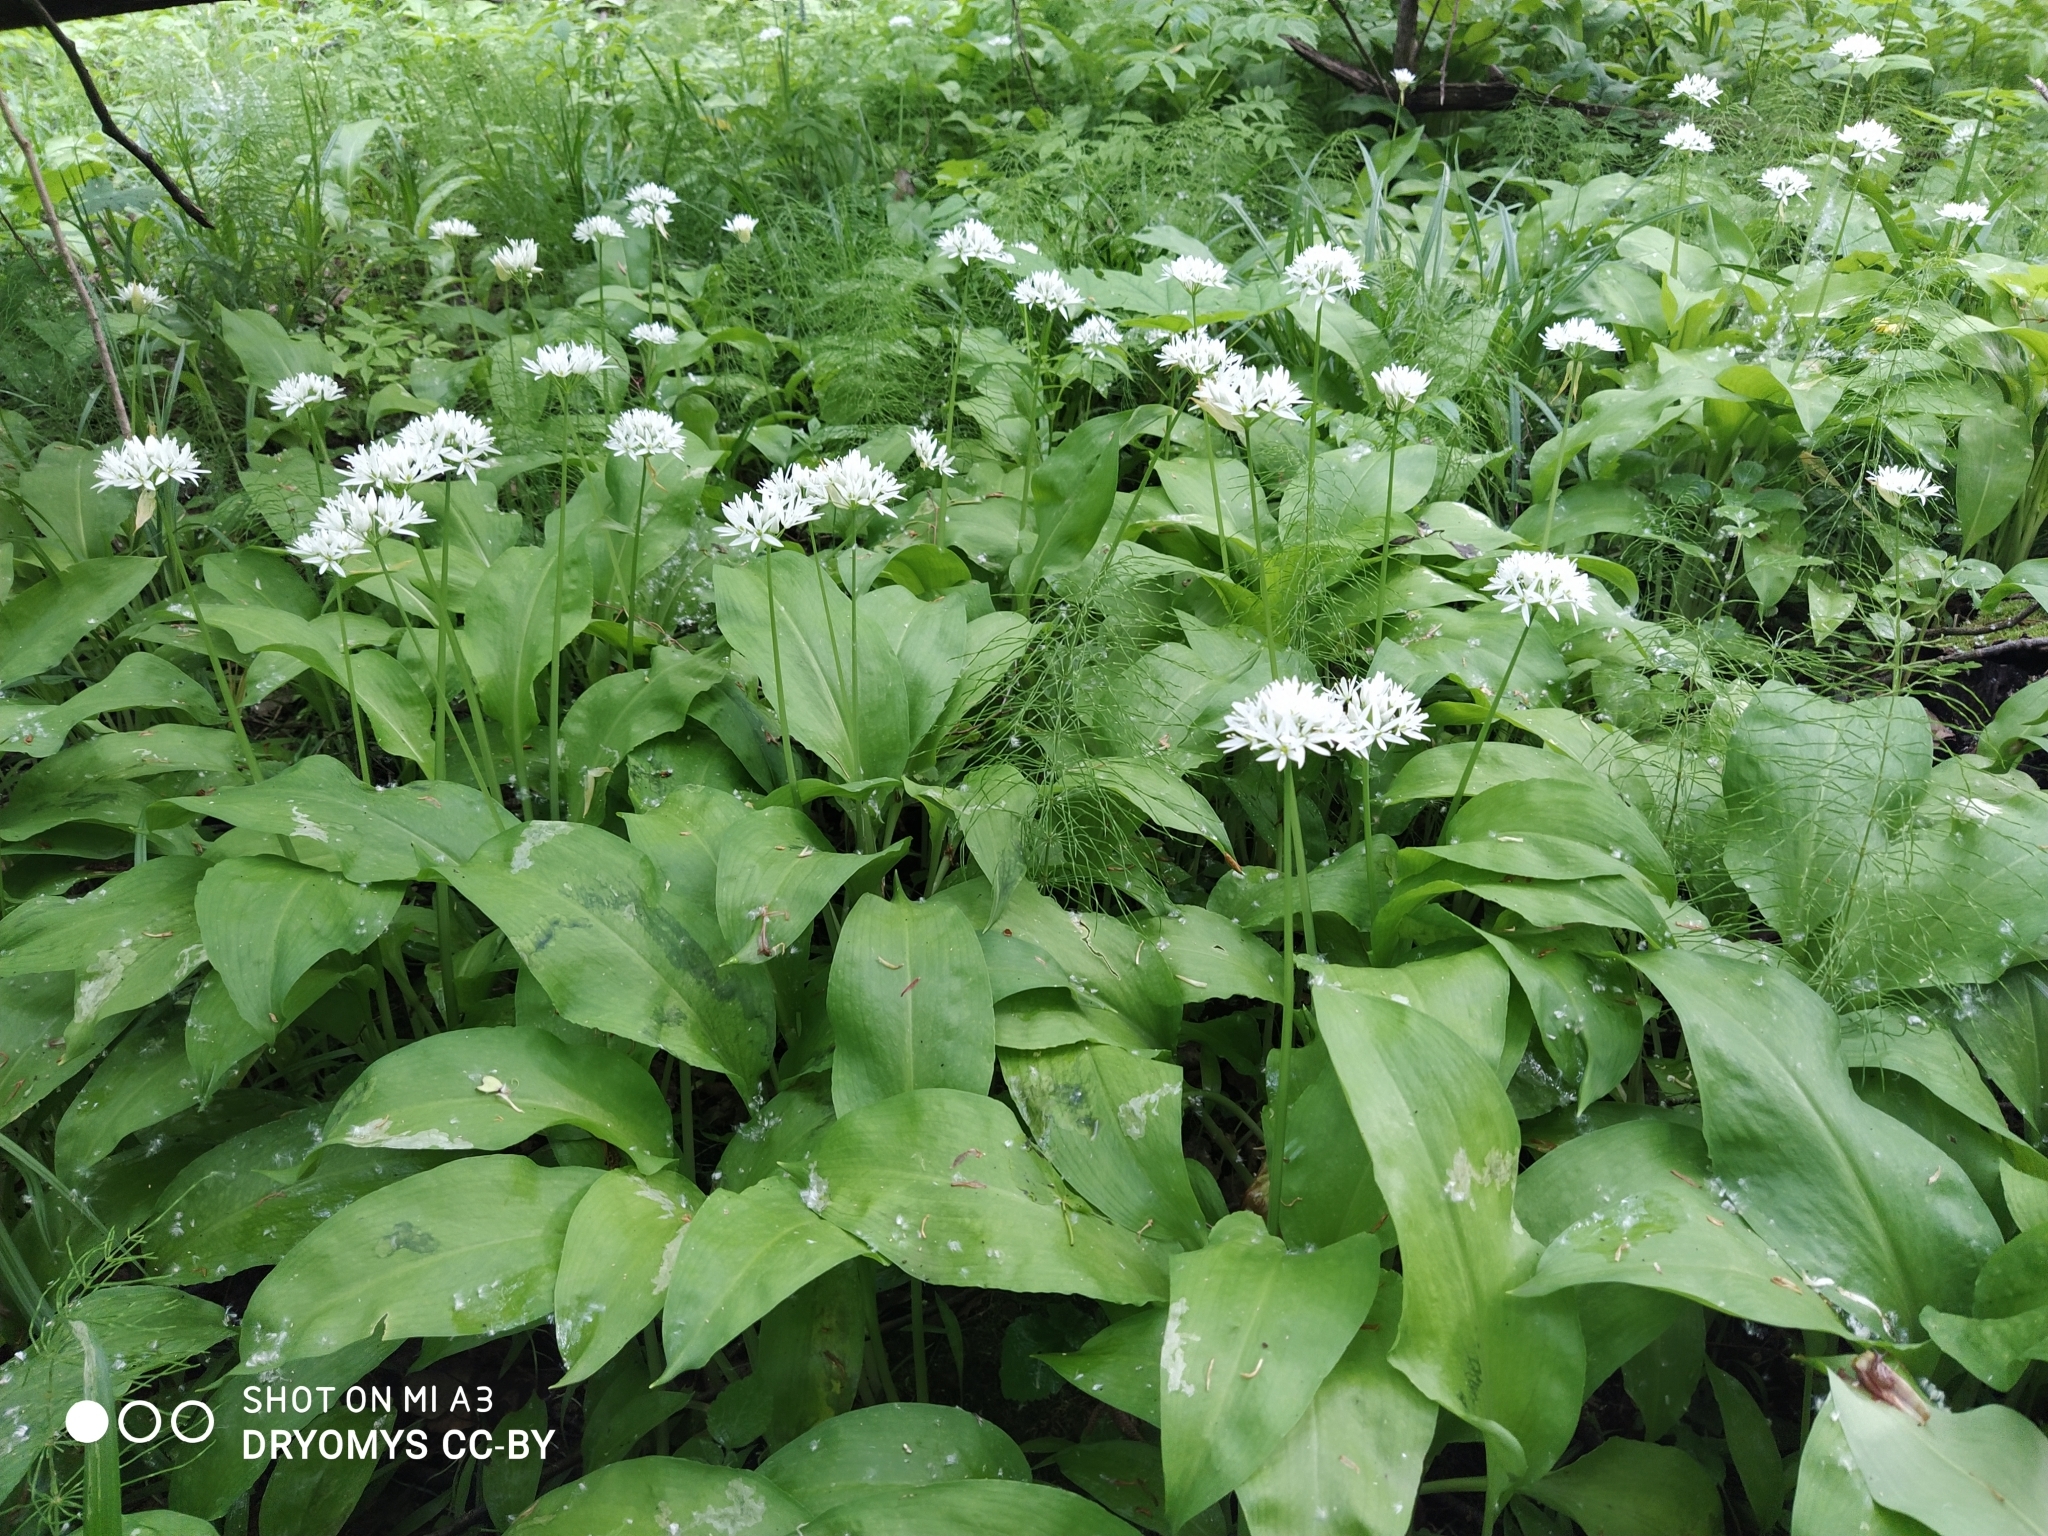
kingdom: Plantae
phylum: Tracheophyta
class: Liliopsida
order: Asparagales
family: Amaryllidaceae
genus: Allium
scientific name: Allium ursinum
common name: Ramsons
